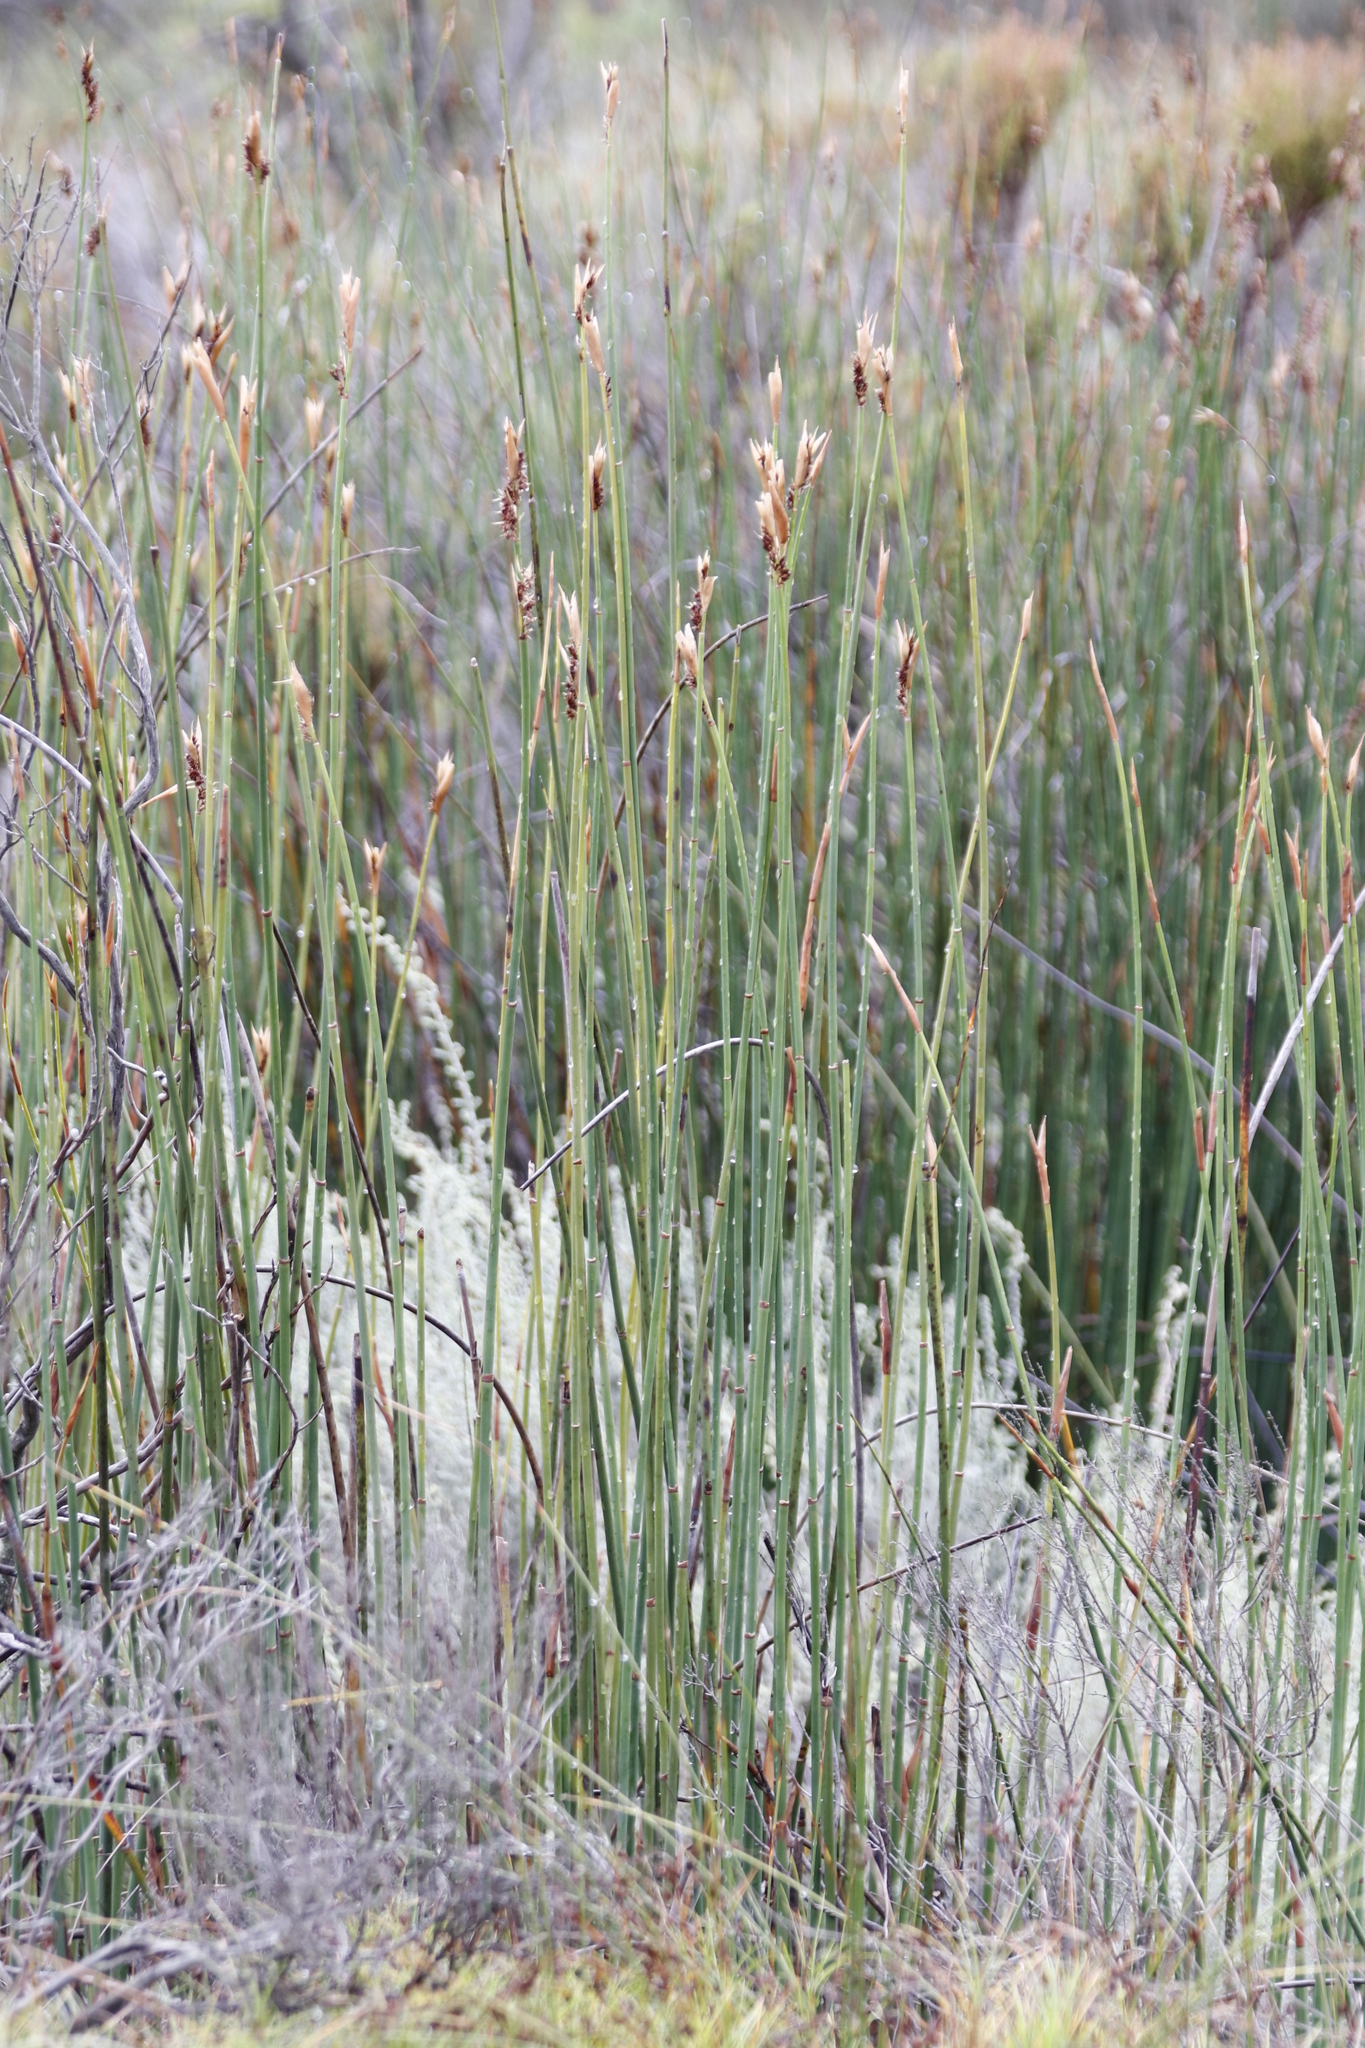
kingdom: Plantae
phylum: Tracheophyta
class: Liliopsida
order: Poales
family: Restionaceae
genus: Elegia
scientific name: Elegia mucronata
